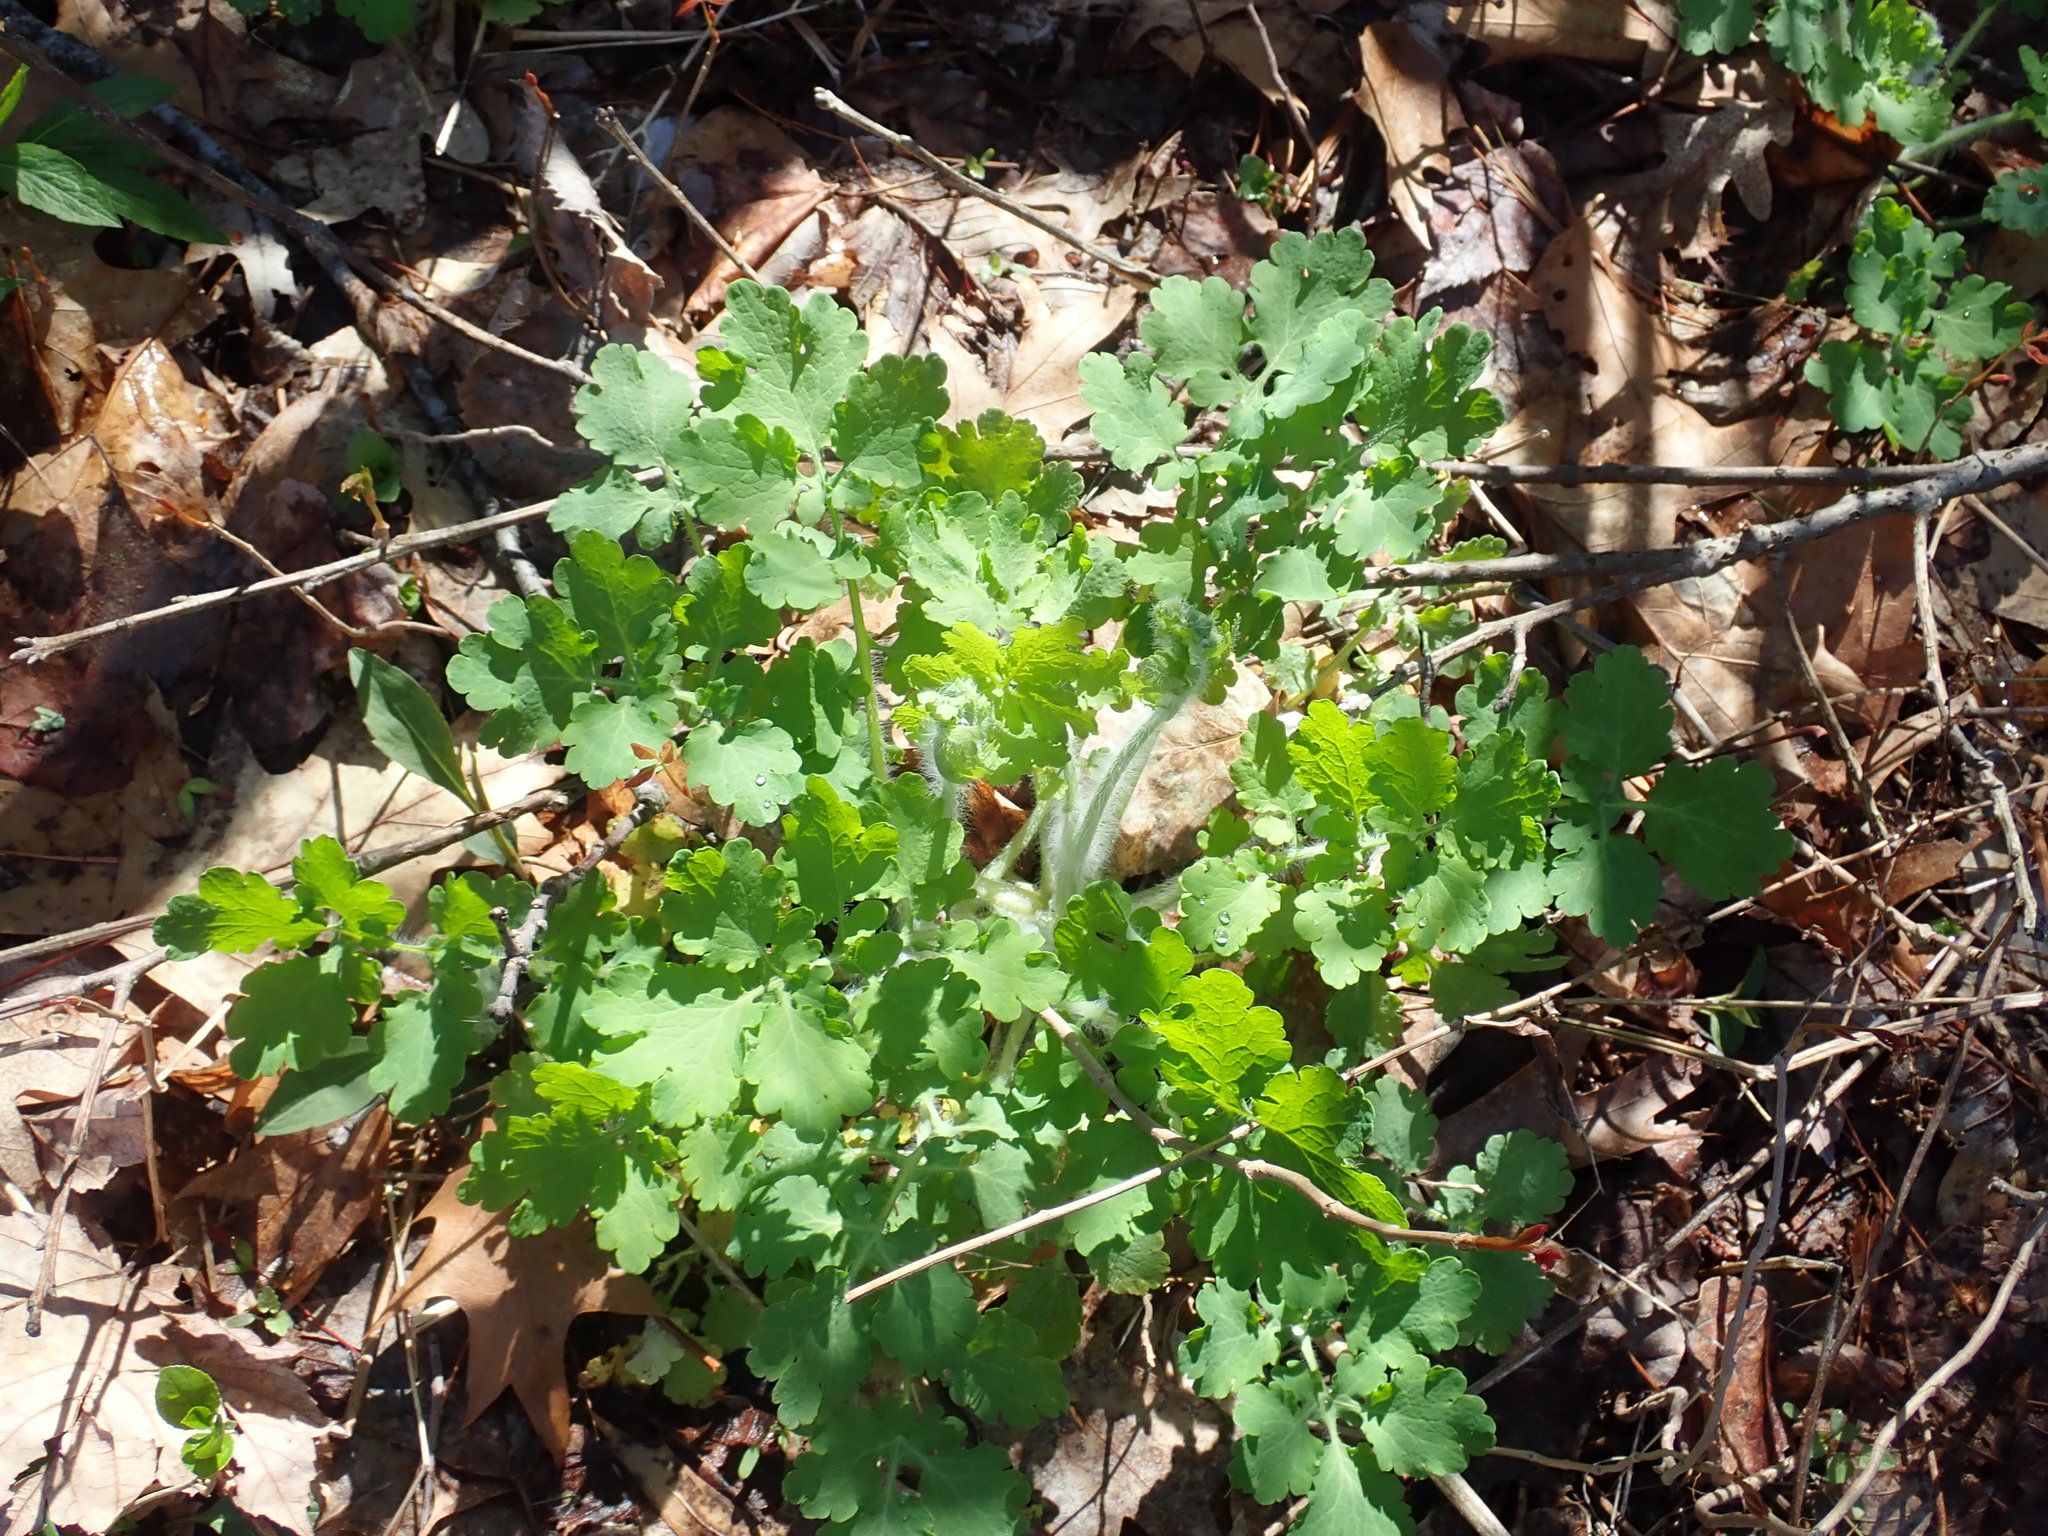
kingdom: Plantae
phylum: Tracheophyta
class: Magnoliopsida
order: Ranunculales
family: Papaveraceae
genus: Chelidonium
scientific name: Chelidonium majus
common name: Greater celandine
